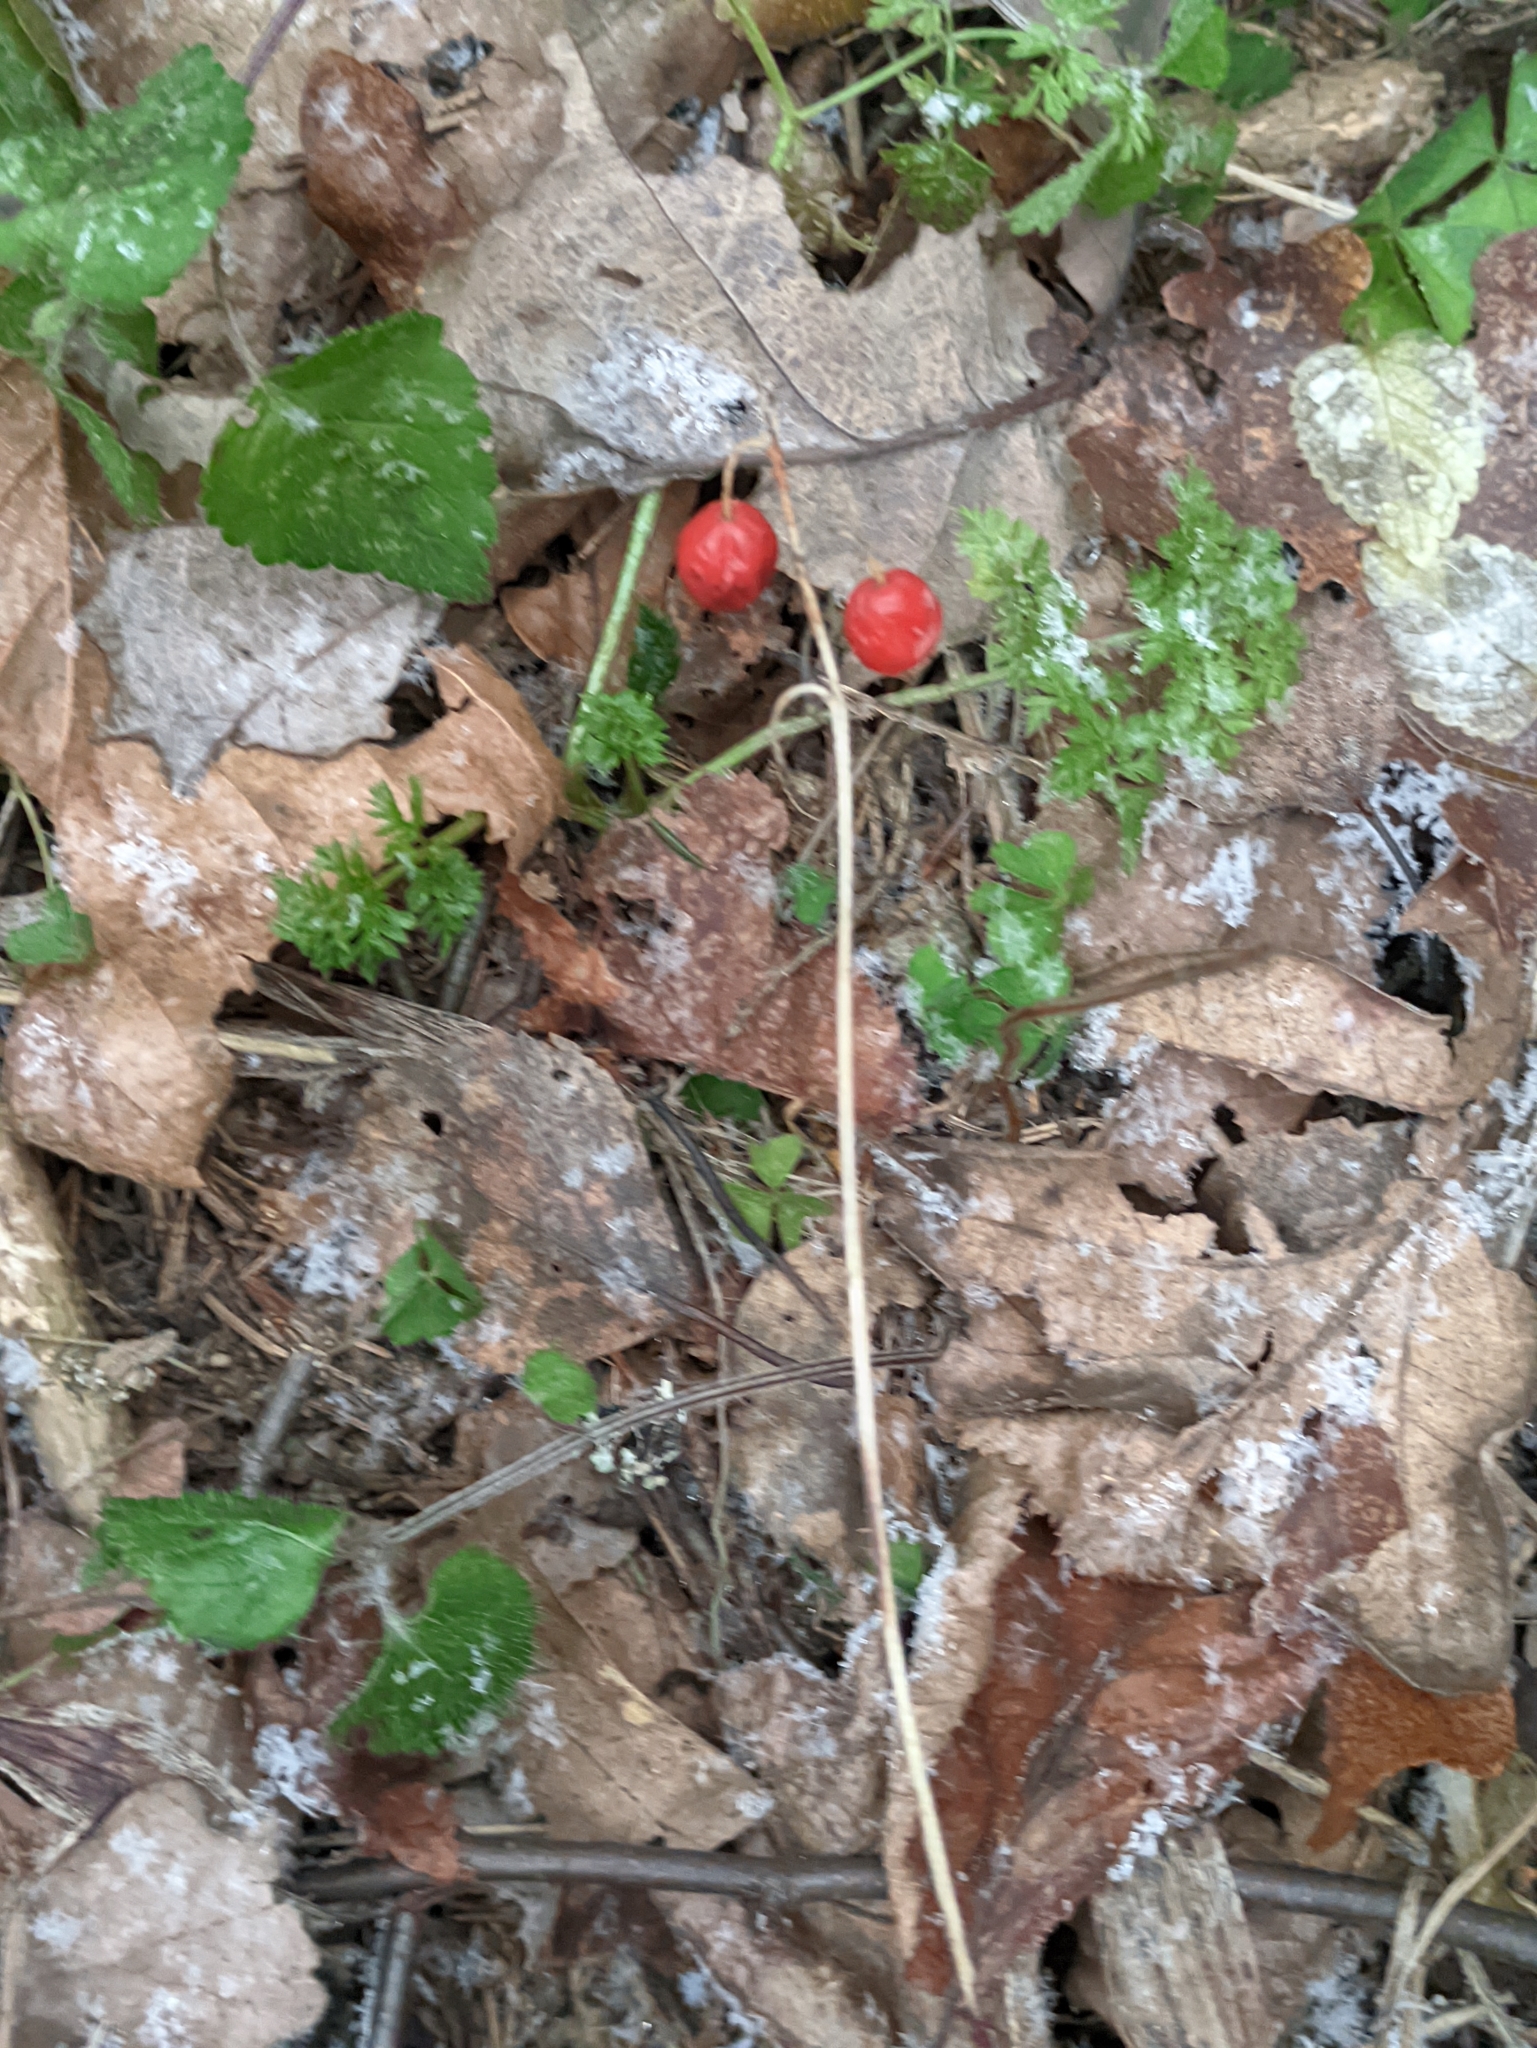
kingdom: Plantae
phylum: Tracheophyta
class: Liliopsida
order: Asparagales
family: Asparagaceae
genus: Convallaria
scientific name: Convallaria majalis
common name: Lily-of-the-valley
